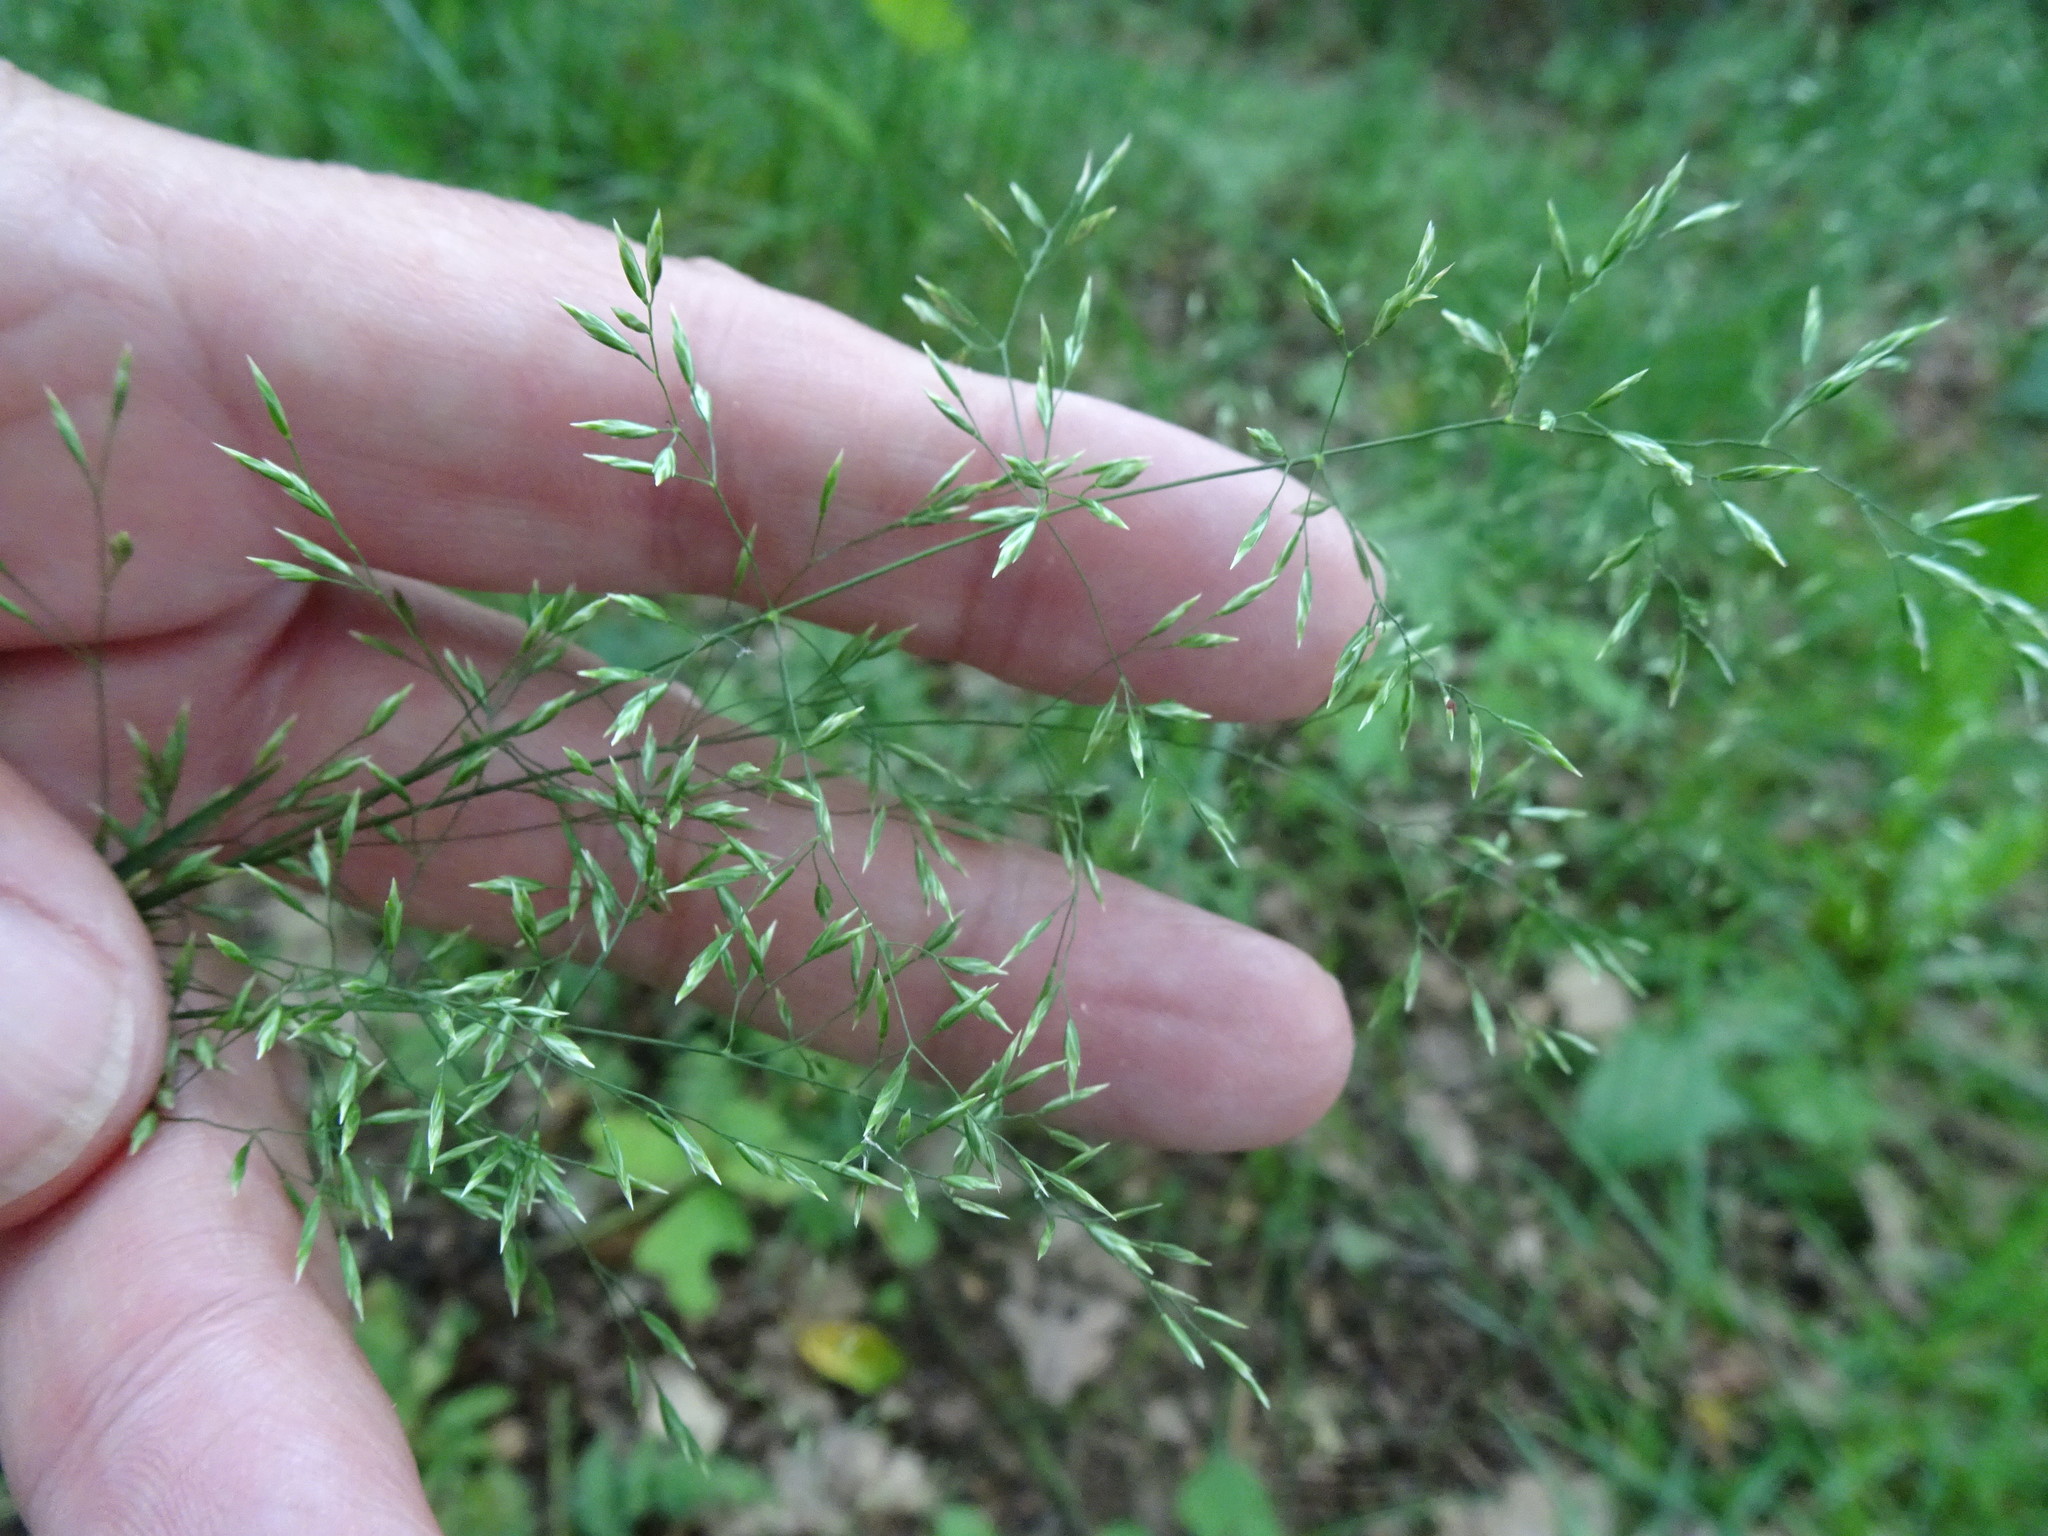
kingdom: Plantae
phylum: Tracheophyta
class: Liliopsida
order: Poales
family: Poaceae
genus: Poa
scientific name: Poa nemoralis
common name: Wood bluegrass
